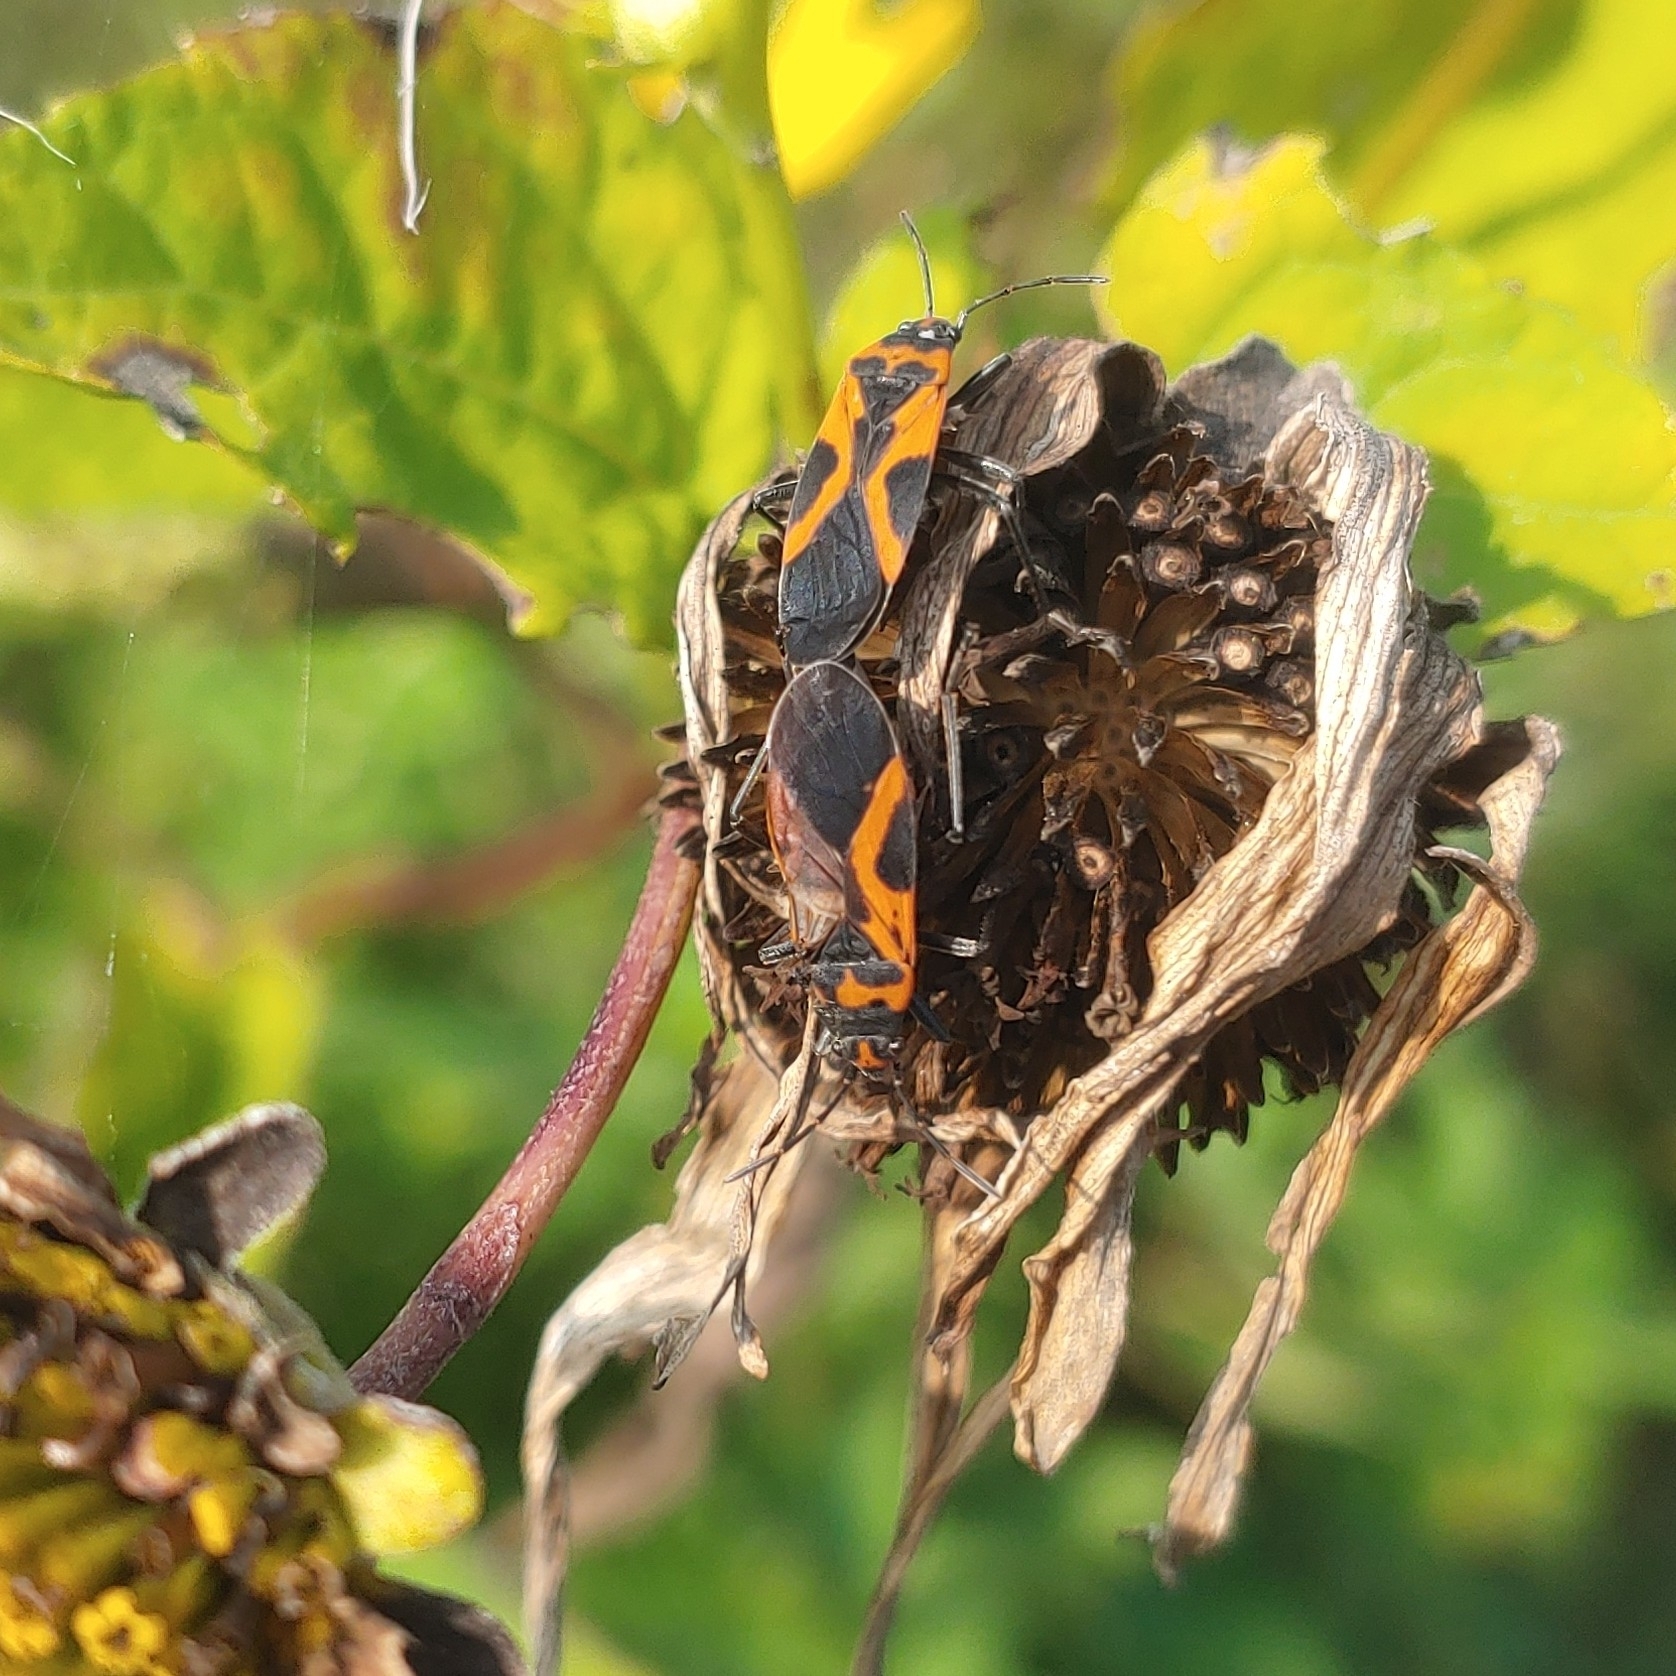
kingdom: Animalia
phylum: Arthropoda
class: Insecta
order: Hemiptera
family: Lygaeidae
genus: Lygaeus
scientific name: Lygaeus turcicus
